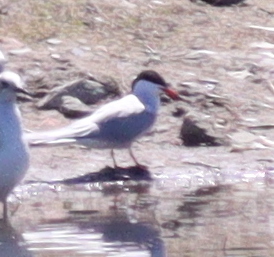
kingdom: Animalia
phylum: Chordata
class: Aves
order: Charadriiformes
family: Laridae
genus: Sterna
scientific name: Sterna hirundo
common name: Common tern
